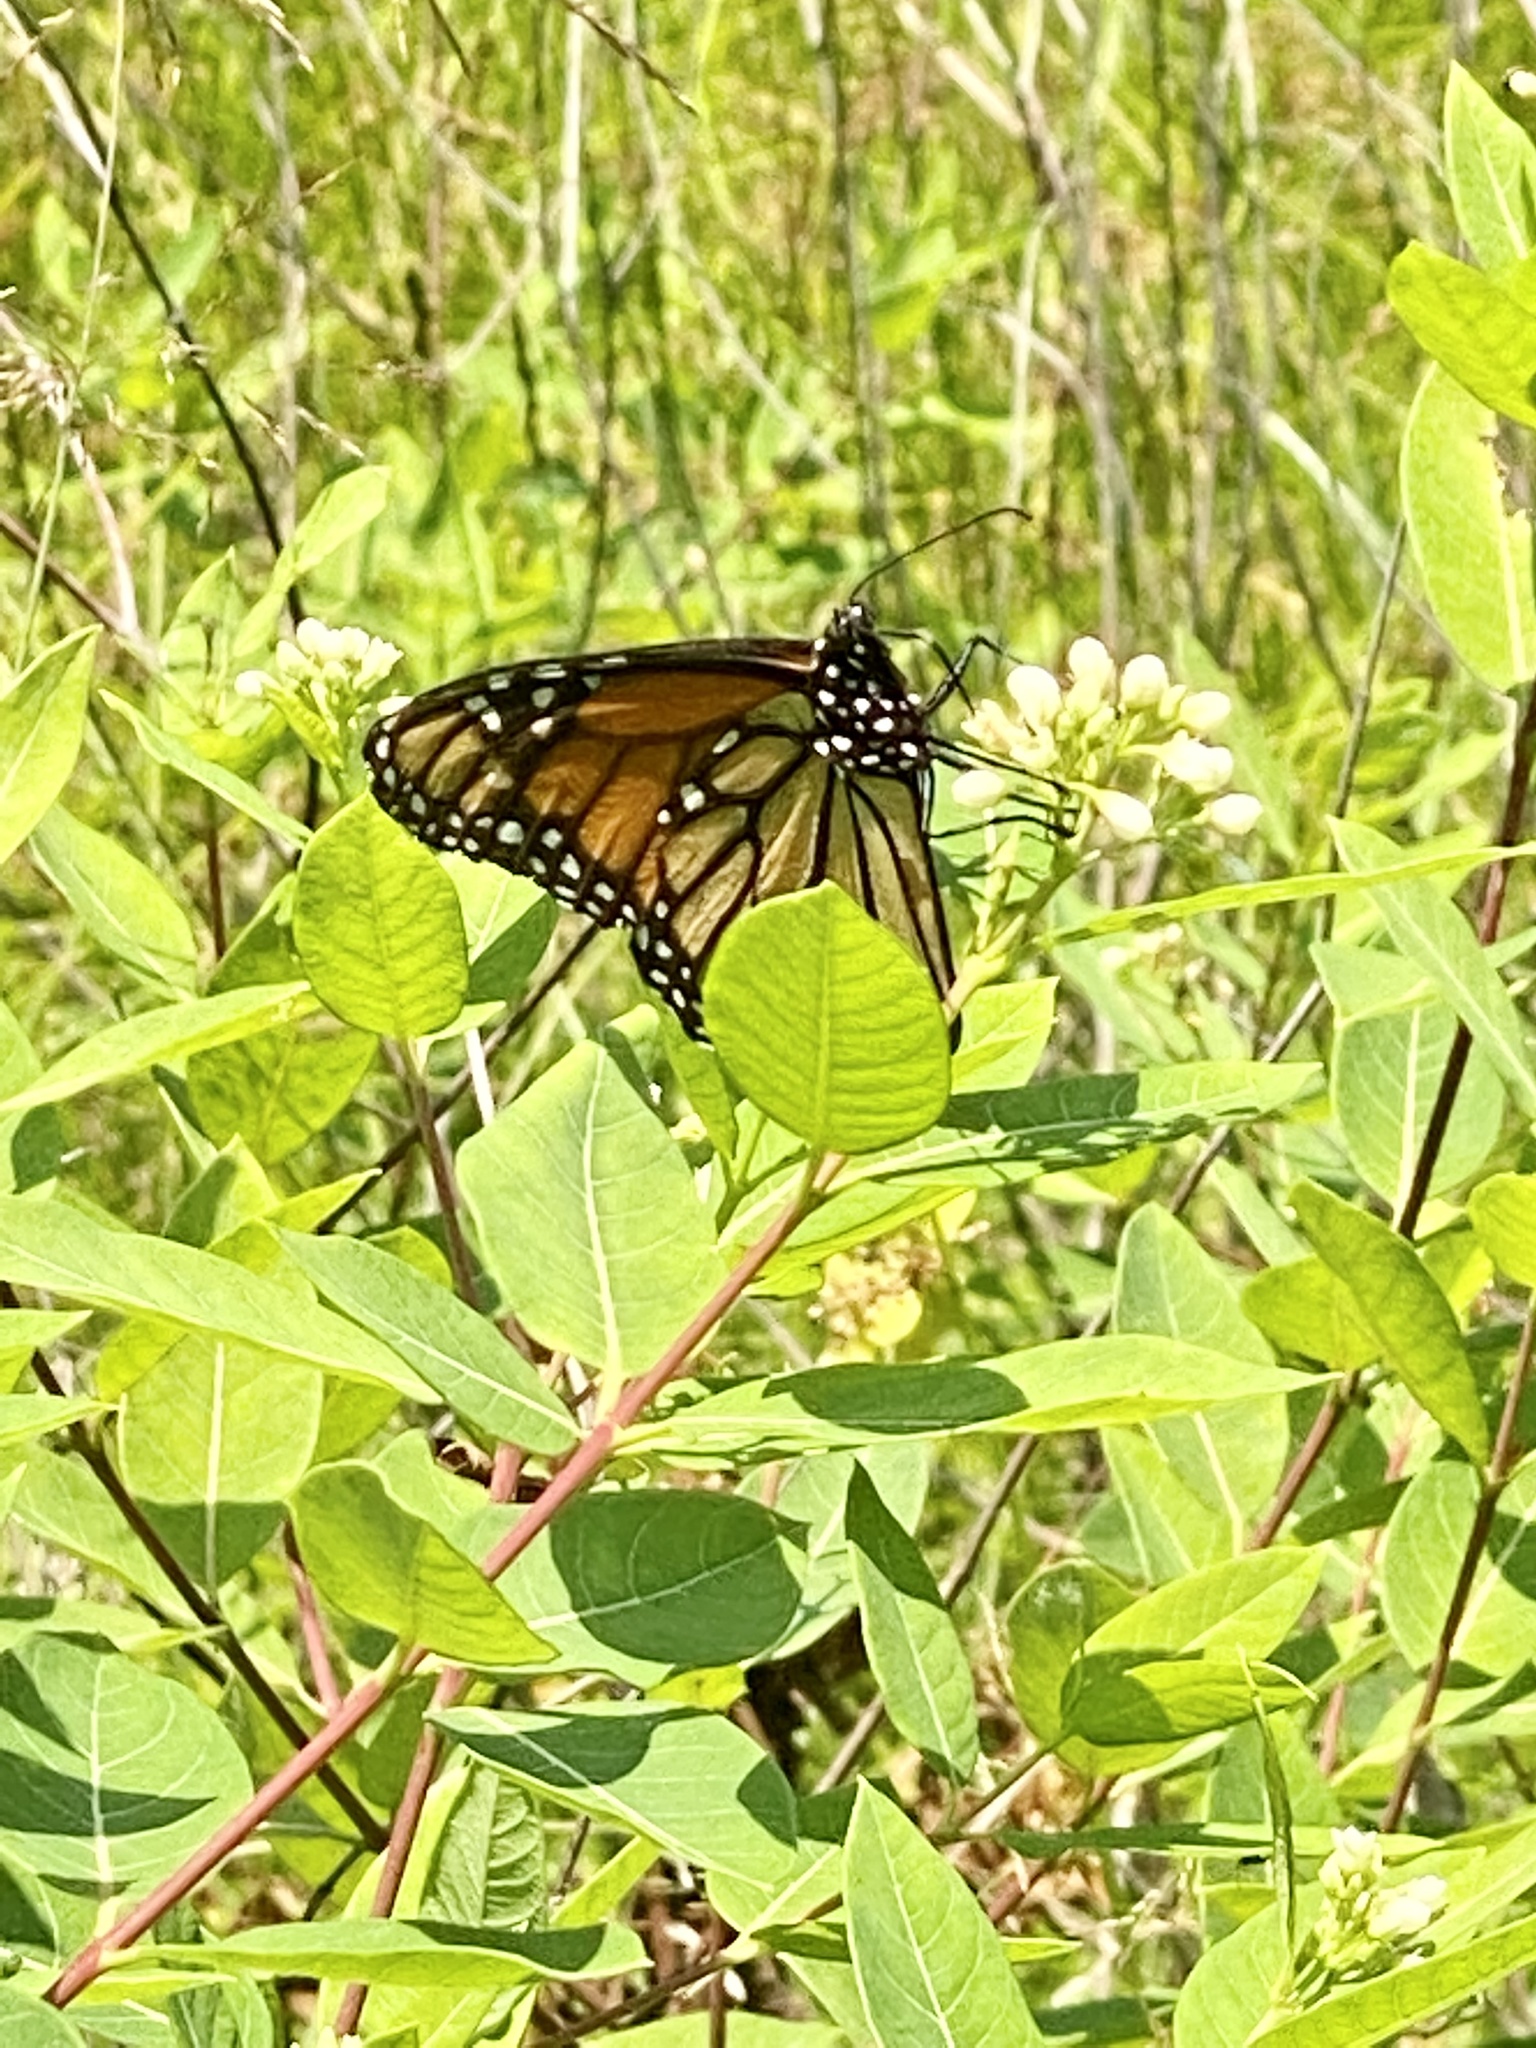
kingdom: Animalia
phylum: Arthropoda
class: Insecta
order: Lepidoptera
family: Nymphalidae
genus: Danaus
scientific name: Danaus plexippus
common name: Monarch
